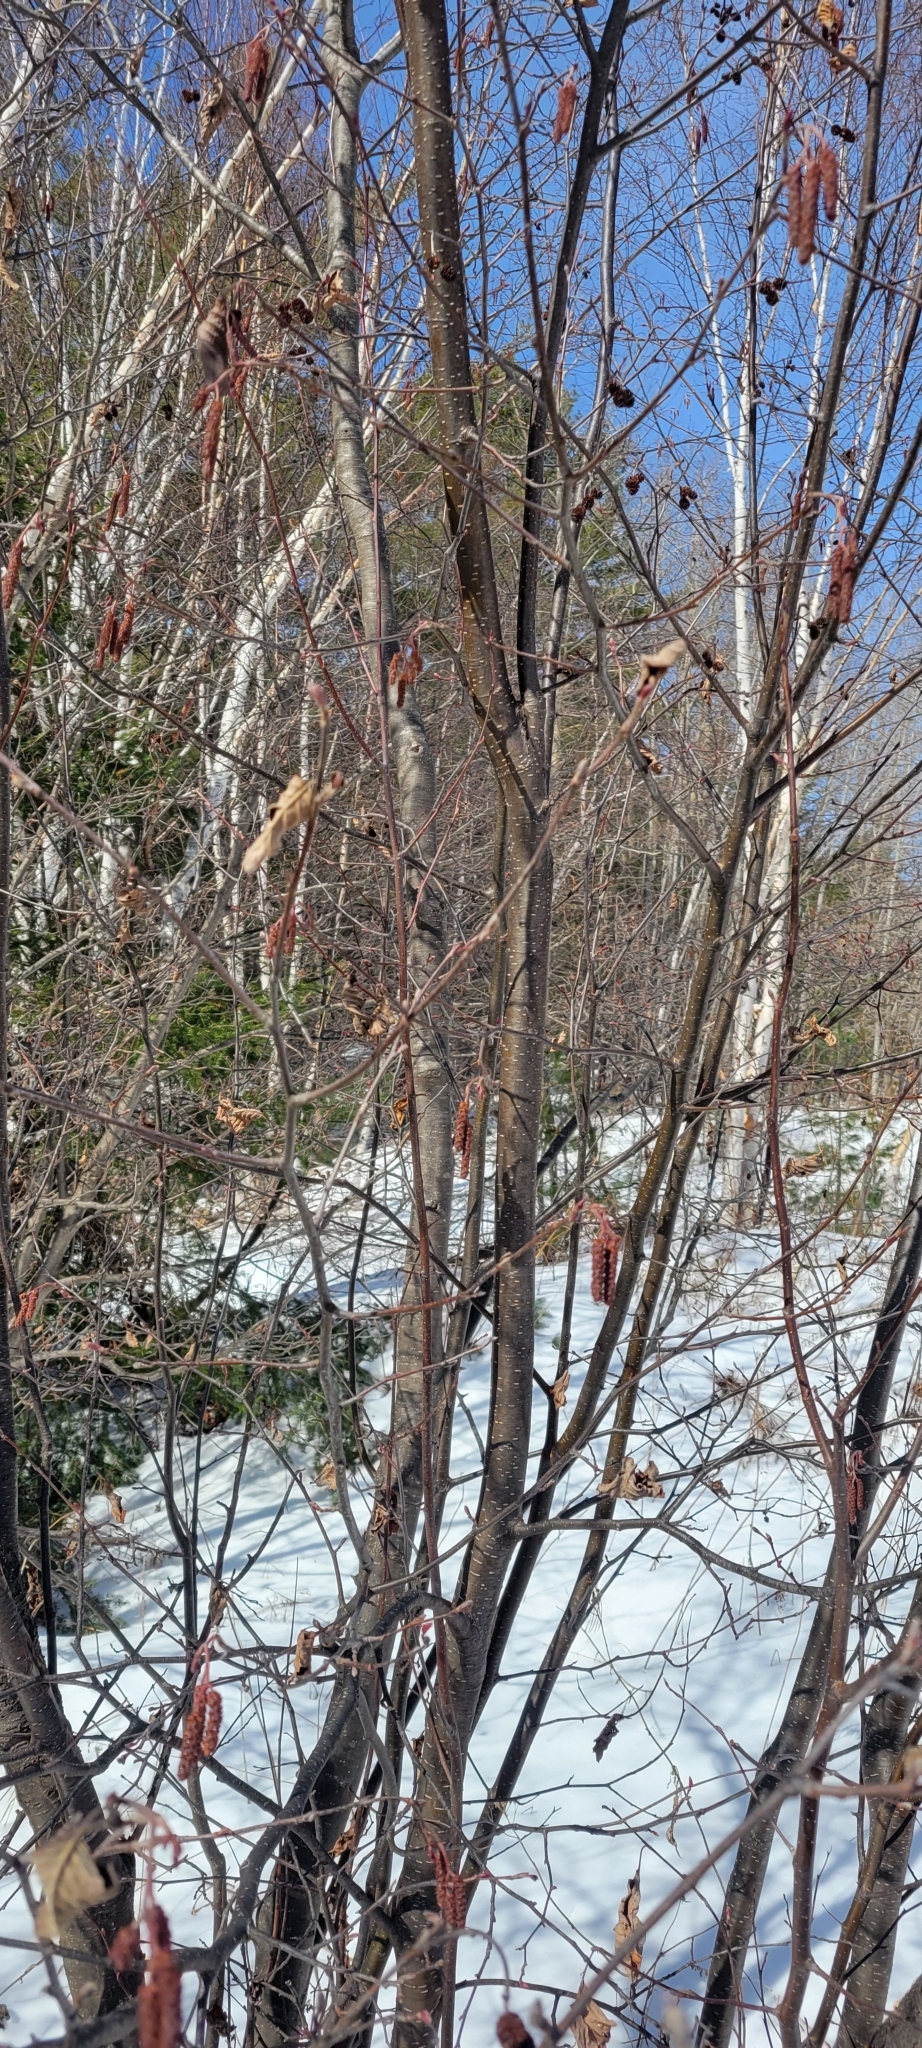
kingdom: Plantae
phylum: Tracheophyta
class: Magnoliopsida
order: Fagales
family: Betulaceae
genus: Alnus
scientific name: Alnus incana
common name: Grey alder
